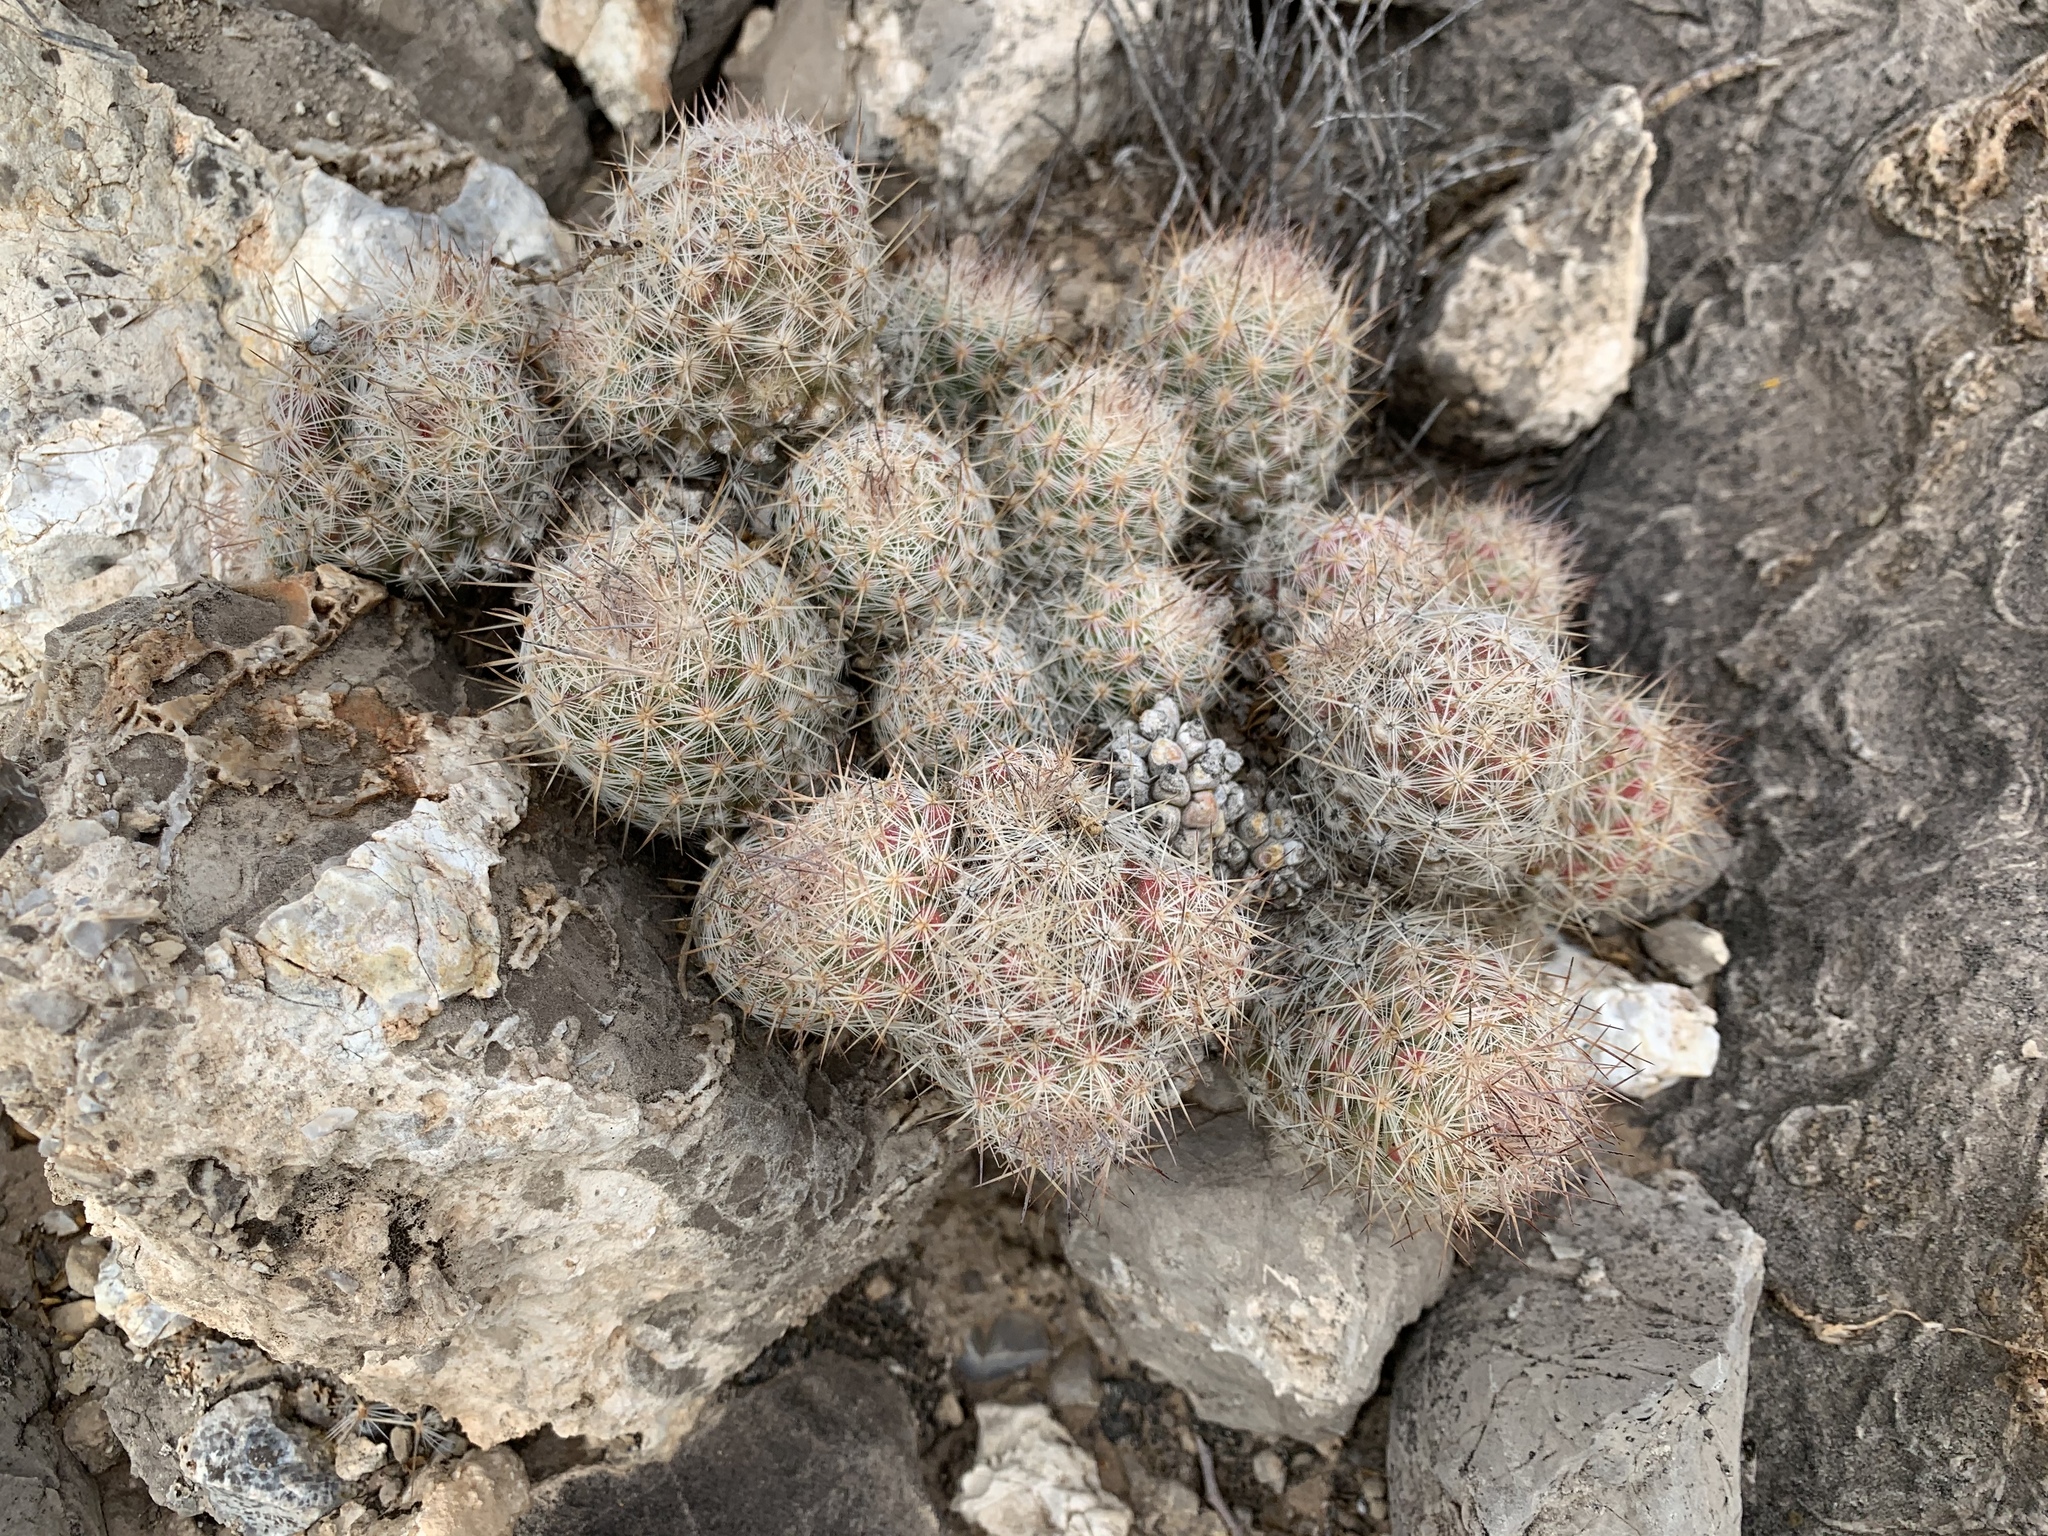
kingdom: Plantae
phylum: Tracheophyta
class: Magnoliopsida
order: Caryophyllales
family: Cactaceae
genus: Pelecyphora
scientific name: Pelecyphora tuberculosa
